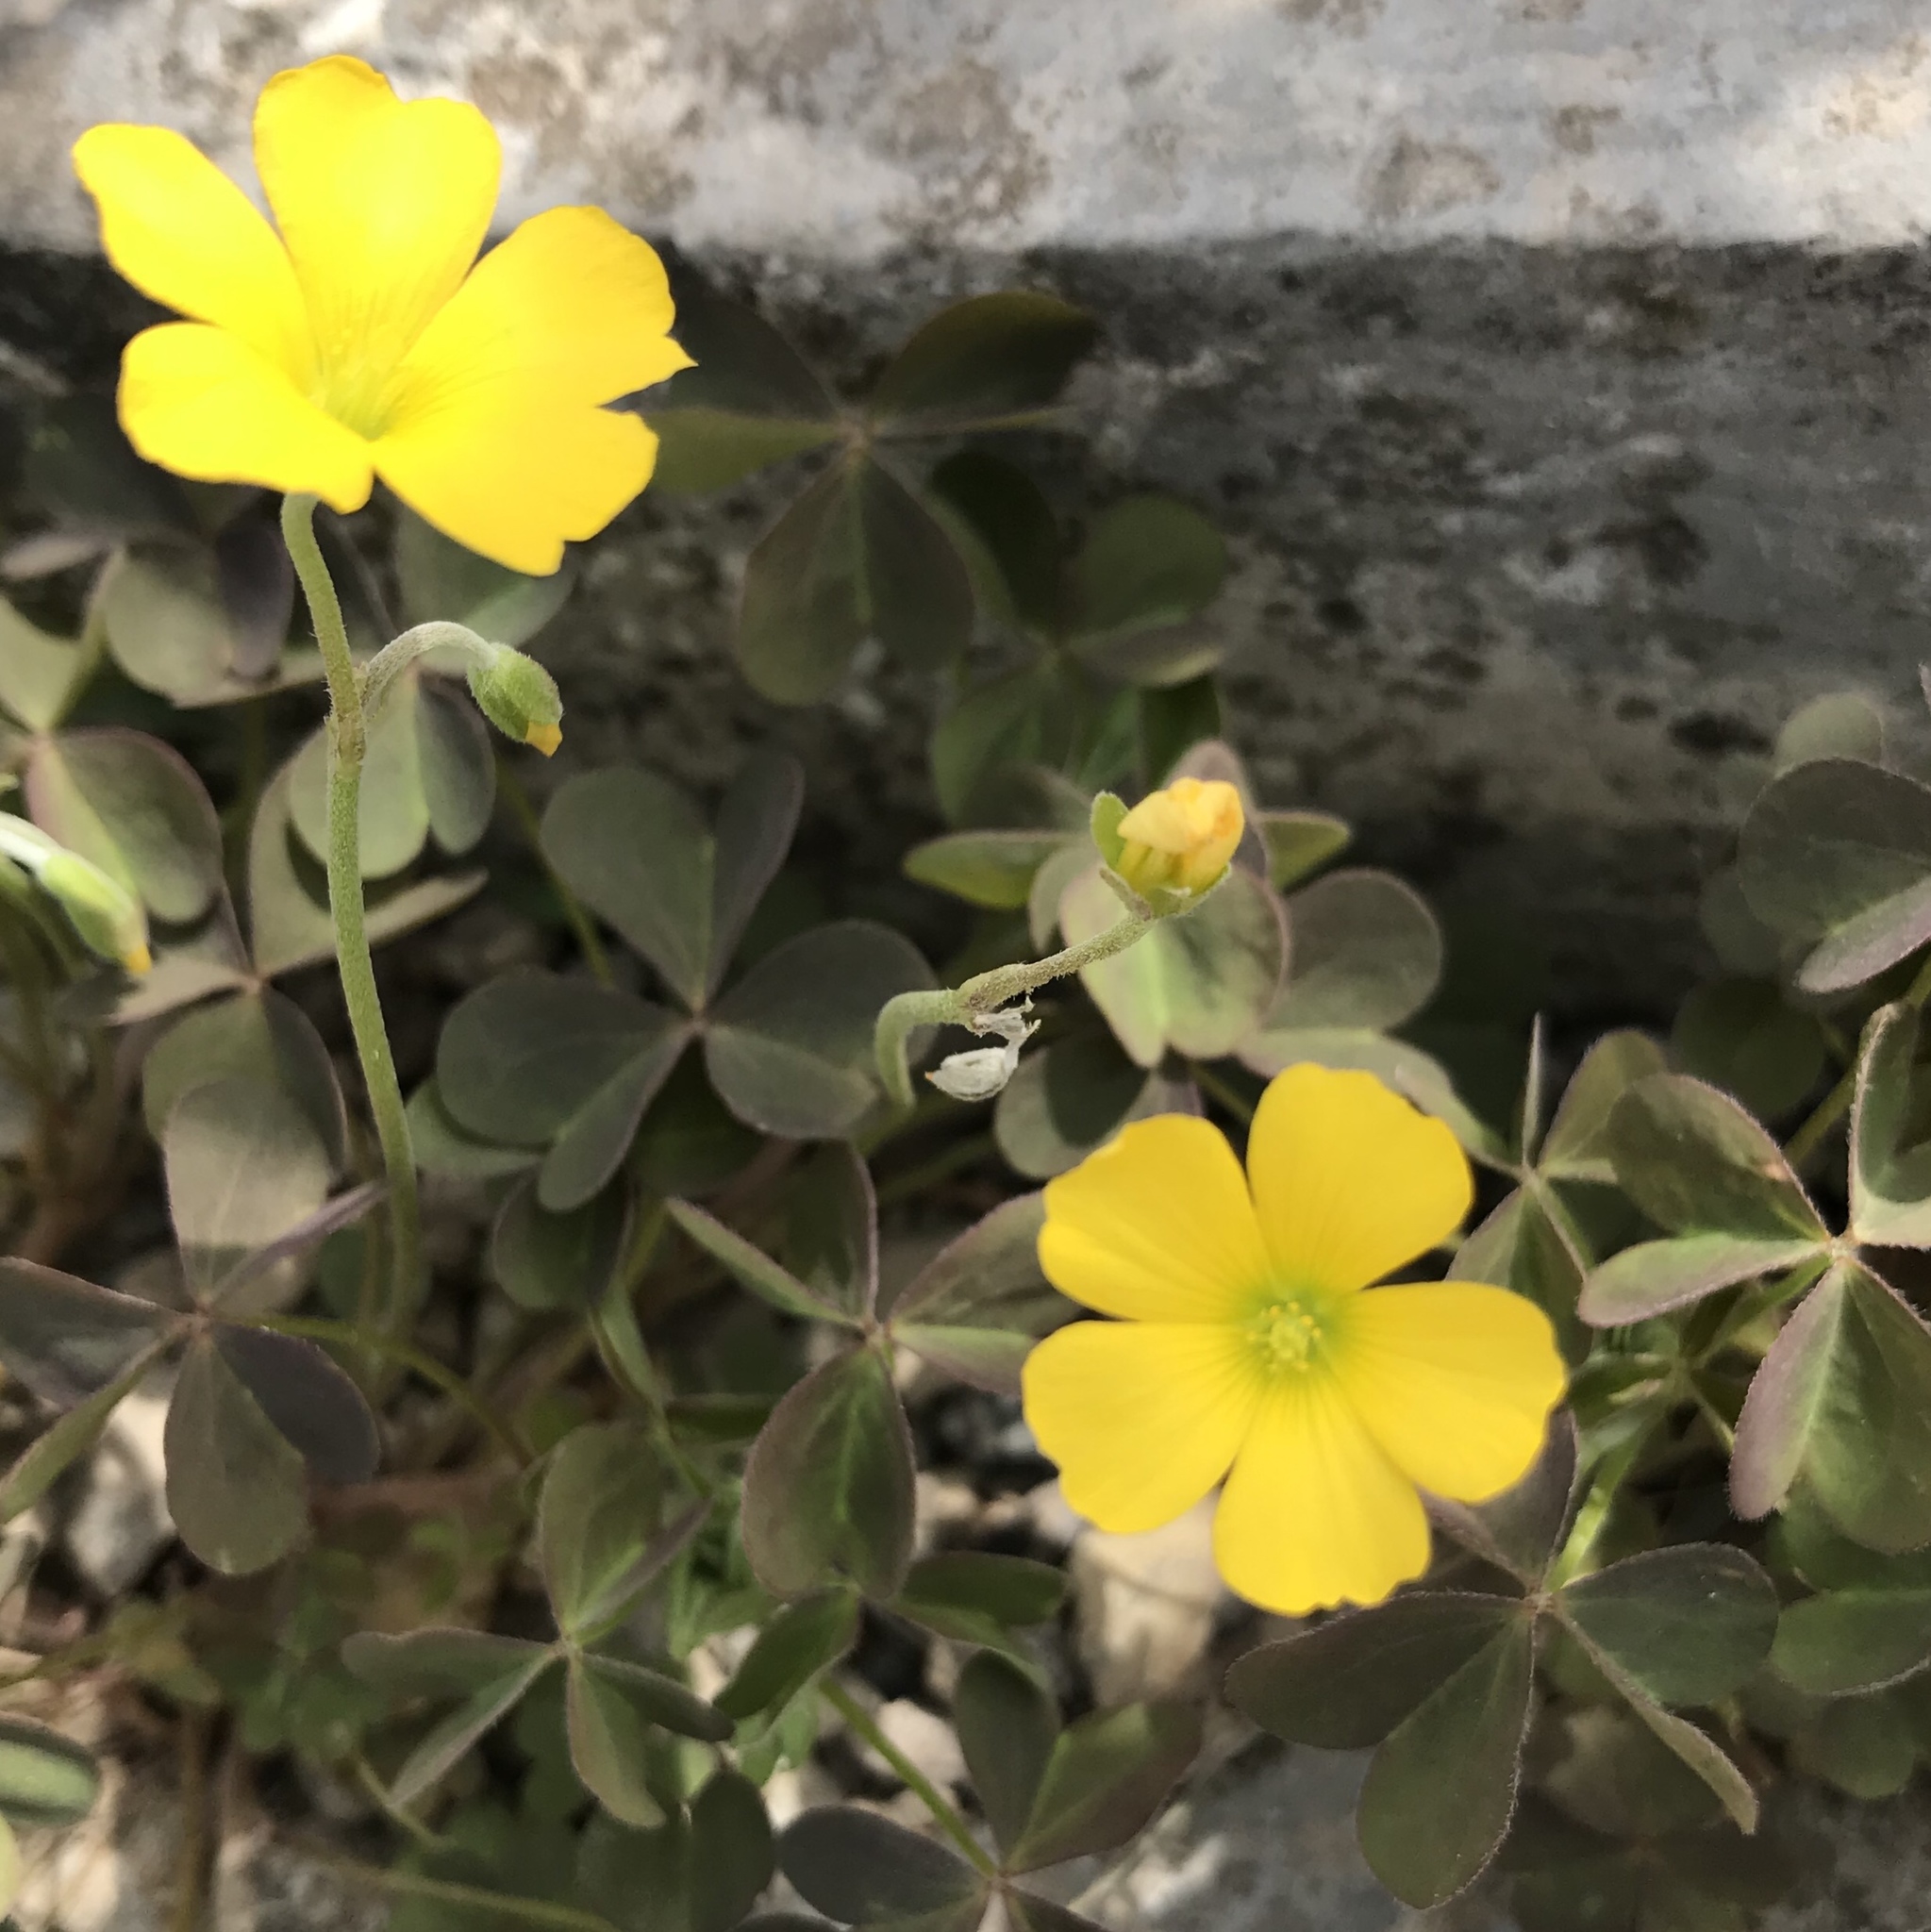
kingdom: Plantae
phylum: Tracheophyta
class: Magnoliopsida
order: Oxalidales
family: Oxalidaceae
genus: Oxalis
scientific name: Oxalis corniculata
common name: Procumbent yellow-sorrel
